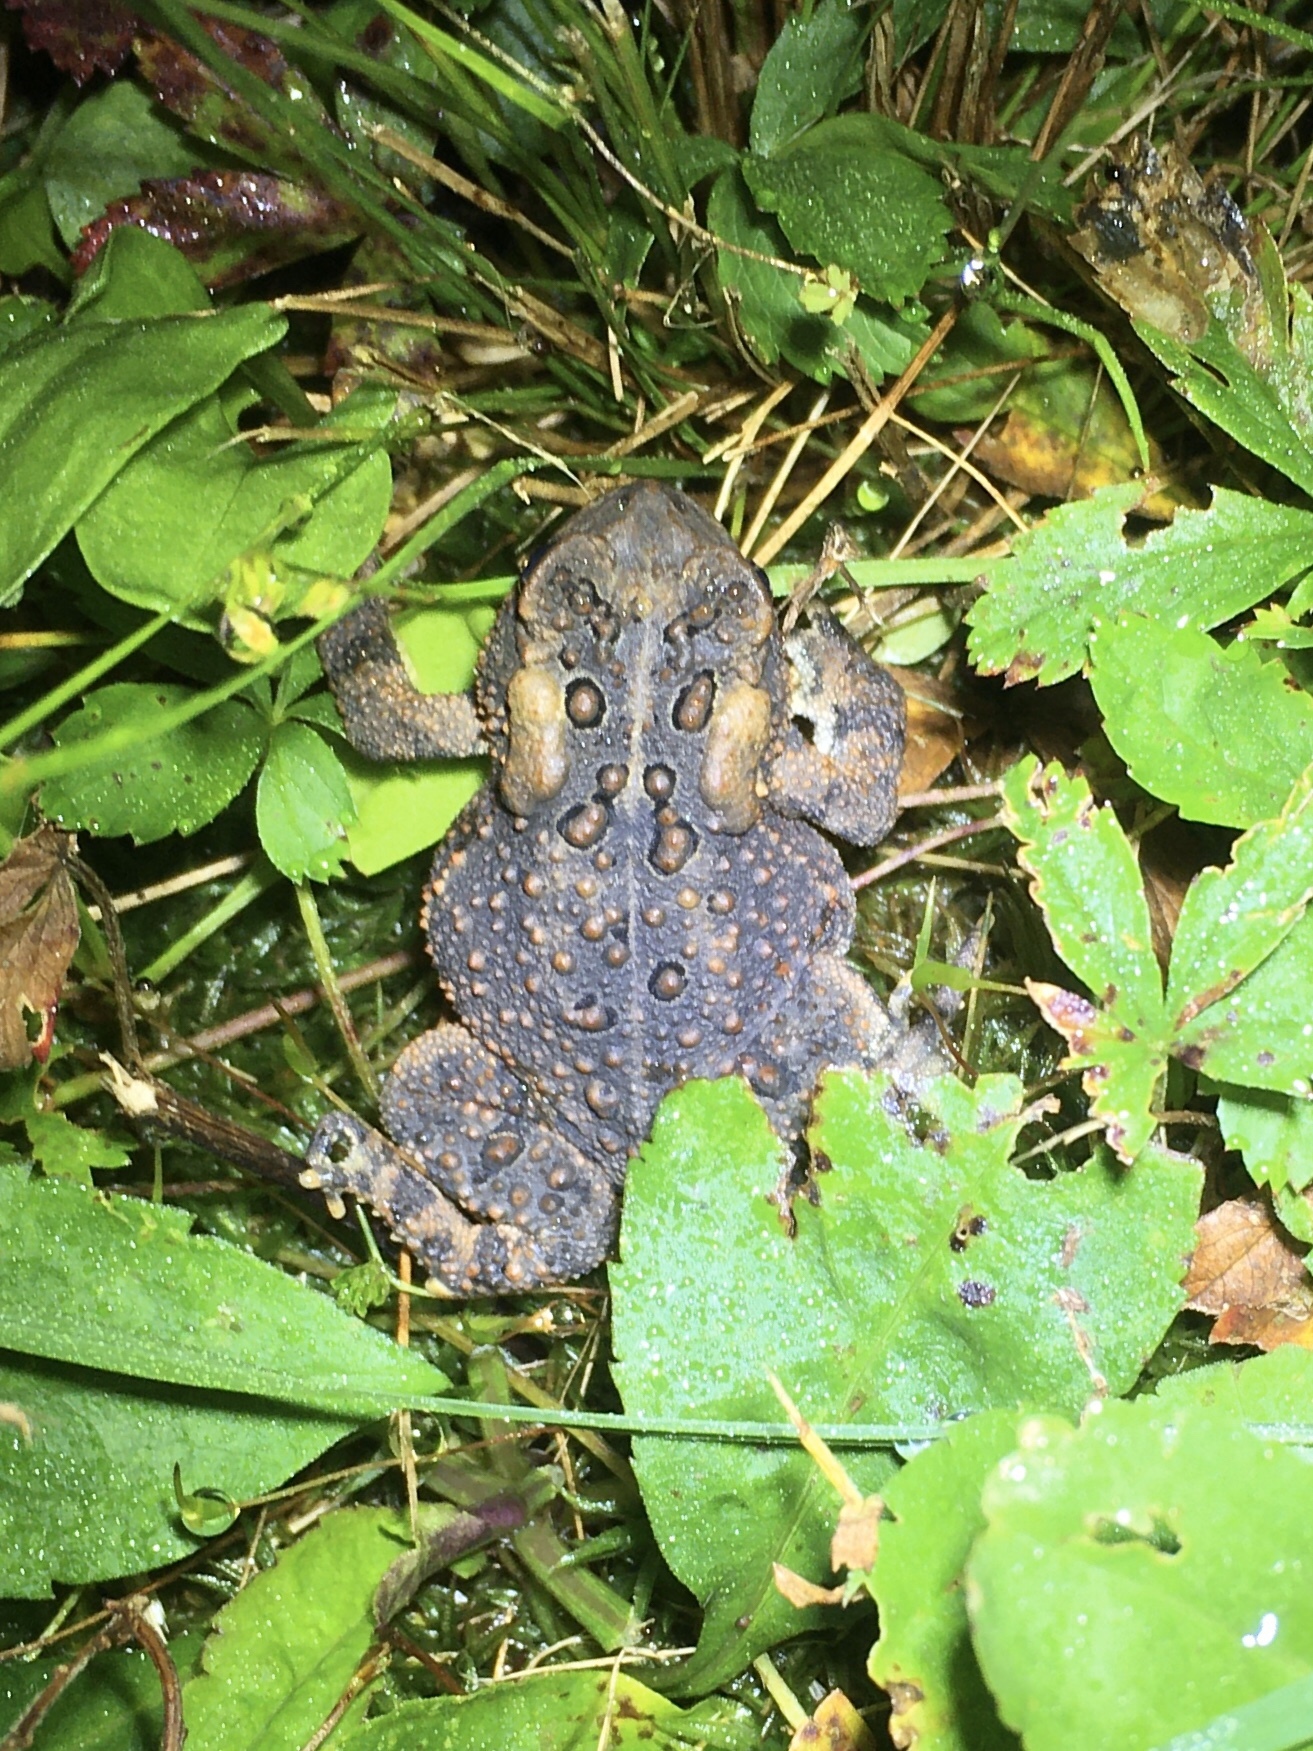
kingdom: Animalia
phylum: Chordata
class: Amphibia
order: Anura
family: Bufonidae
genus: Anaxyrus
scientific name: Anaxyrus americanus
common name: American toad
